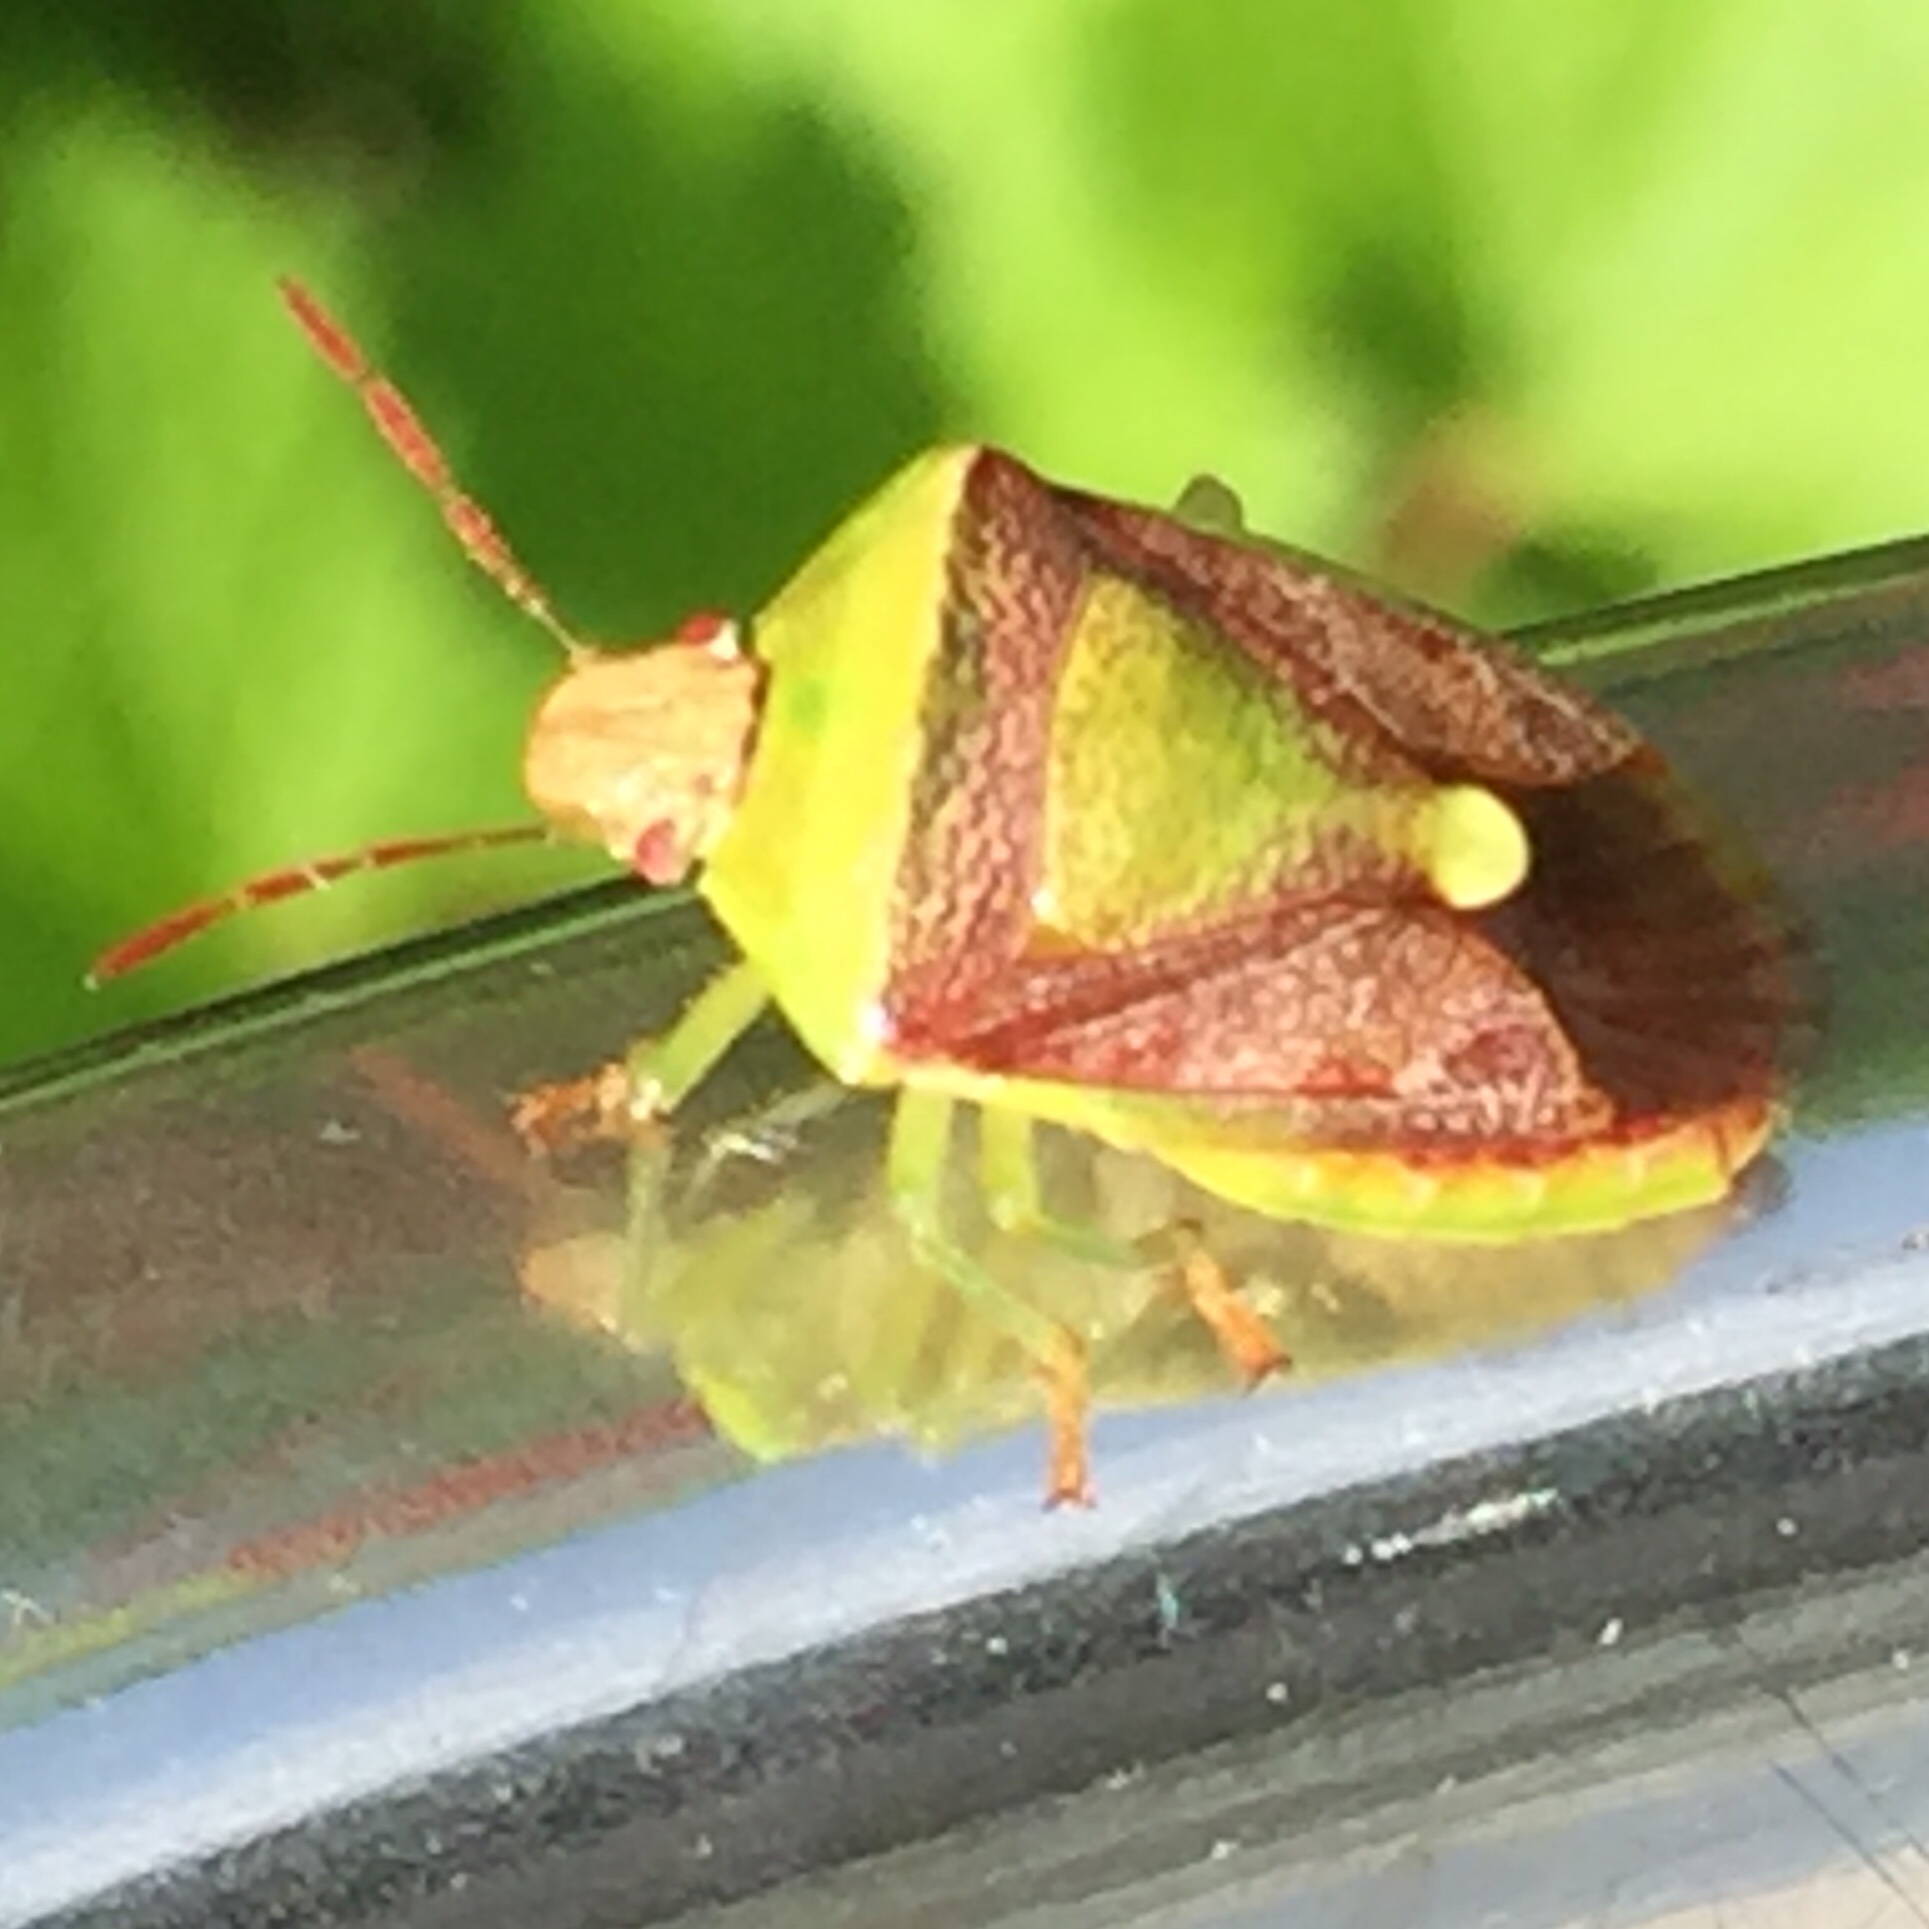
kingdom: Animalia
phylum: Arthropoda
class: Insecta
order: Hemiptera
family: Pentatomidae
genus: Banasa
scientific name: Banasa dimidiata
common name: Green burgundy stink bug
